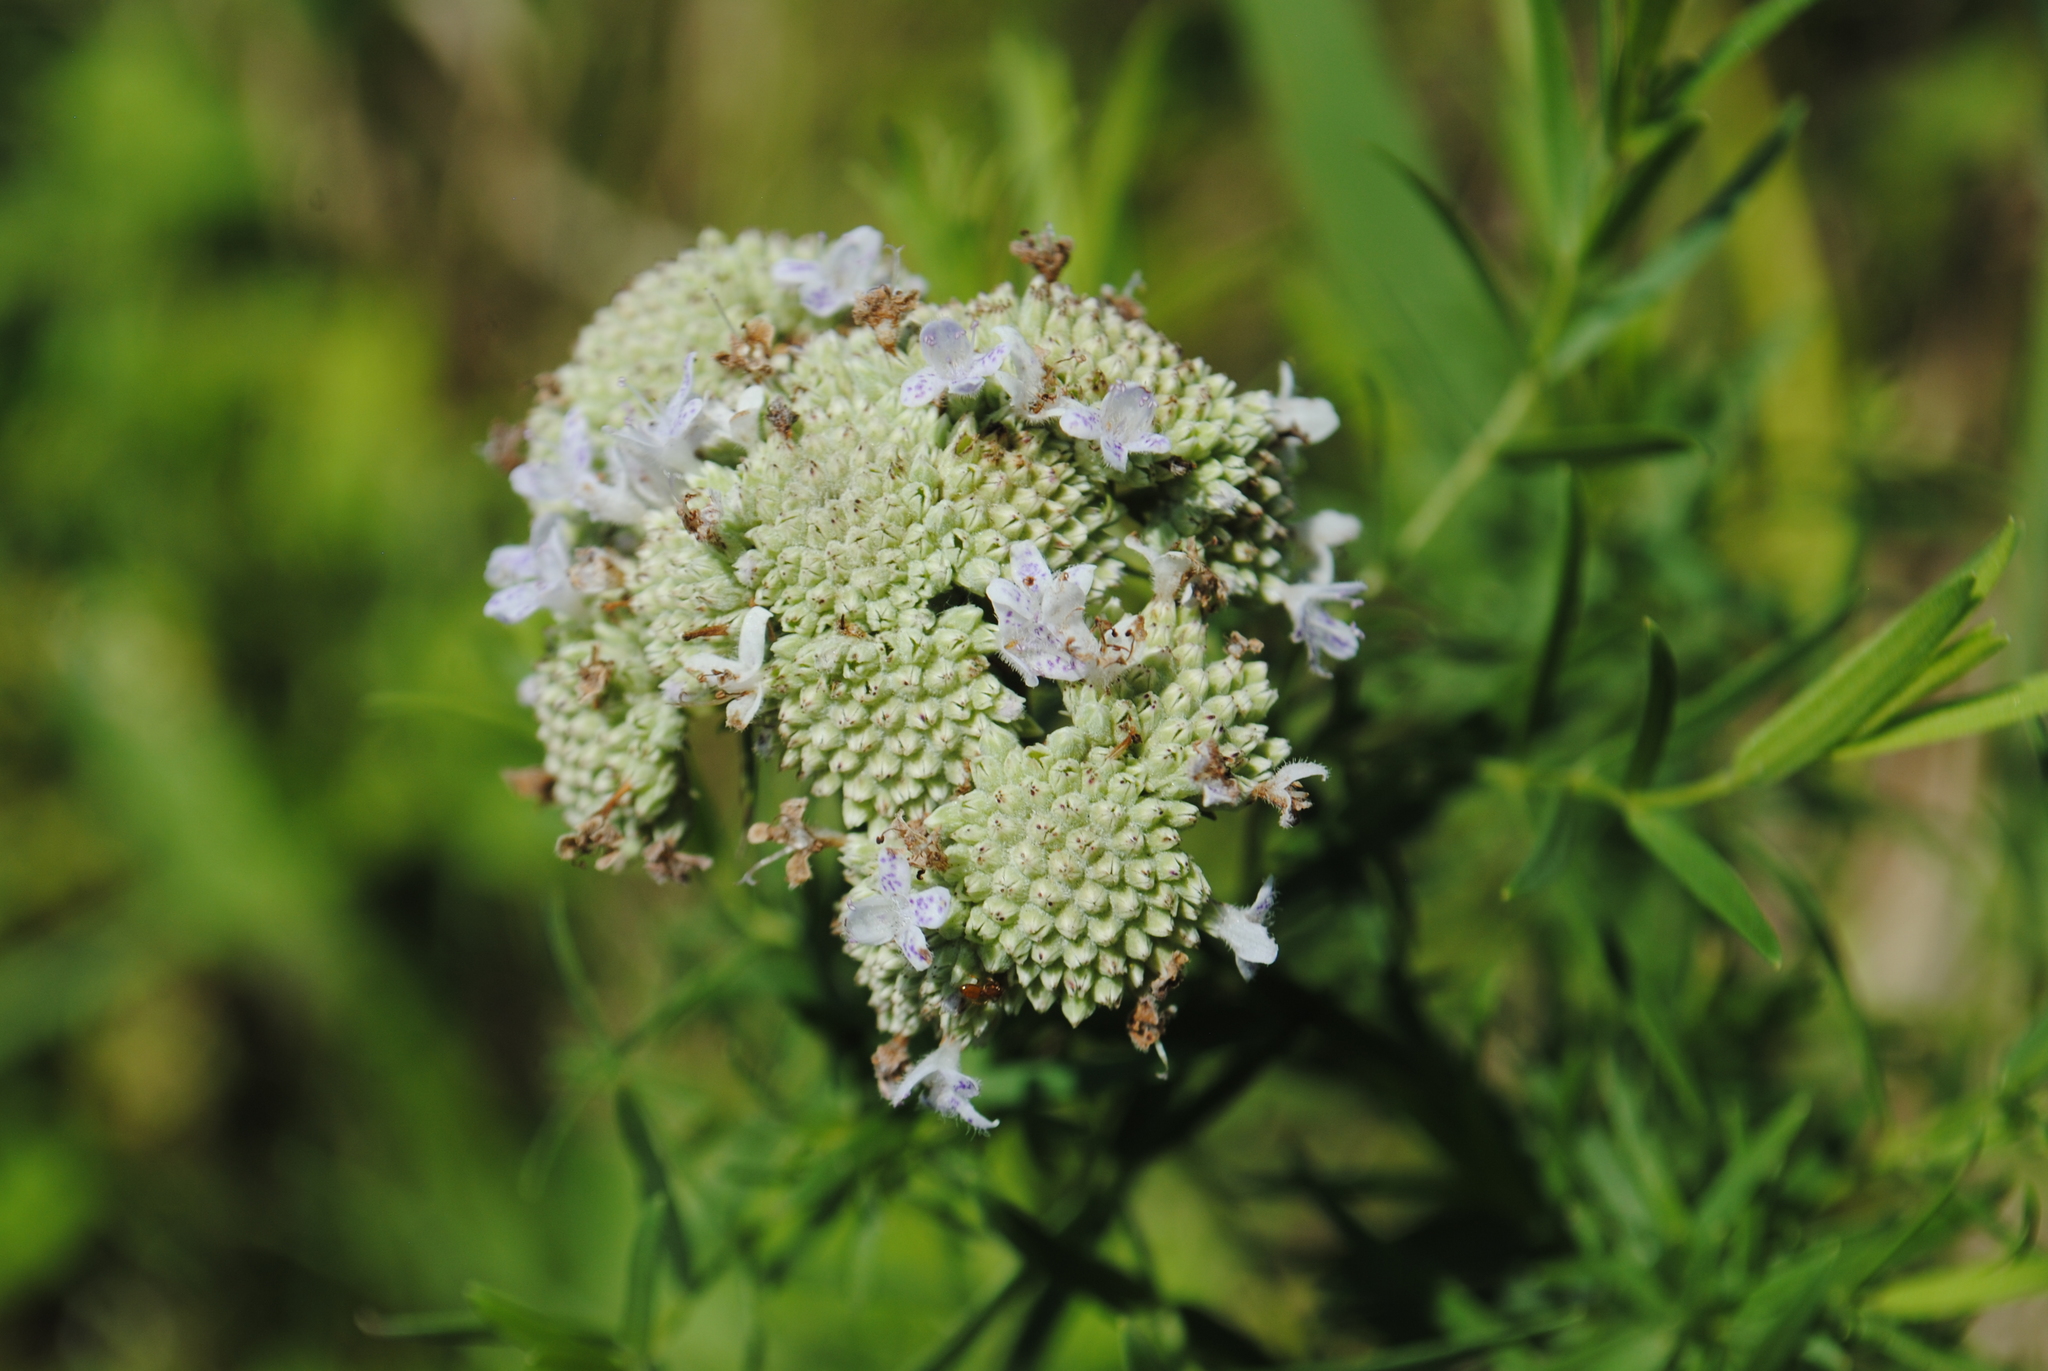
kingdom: Plantae
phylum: Tracheophyta
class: Magnoliopsida
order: Lamiales
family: Lamiaceae
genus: Pycnanthemum
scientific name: Pycnanthemum tenuifolium
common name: Narrow-leaf mountain-mint
